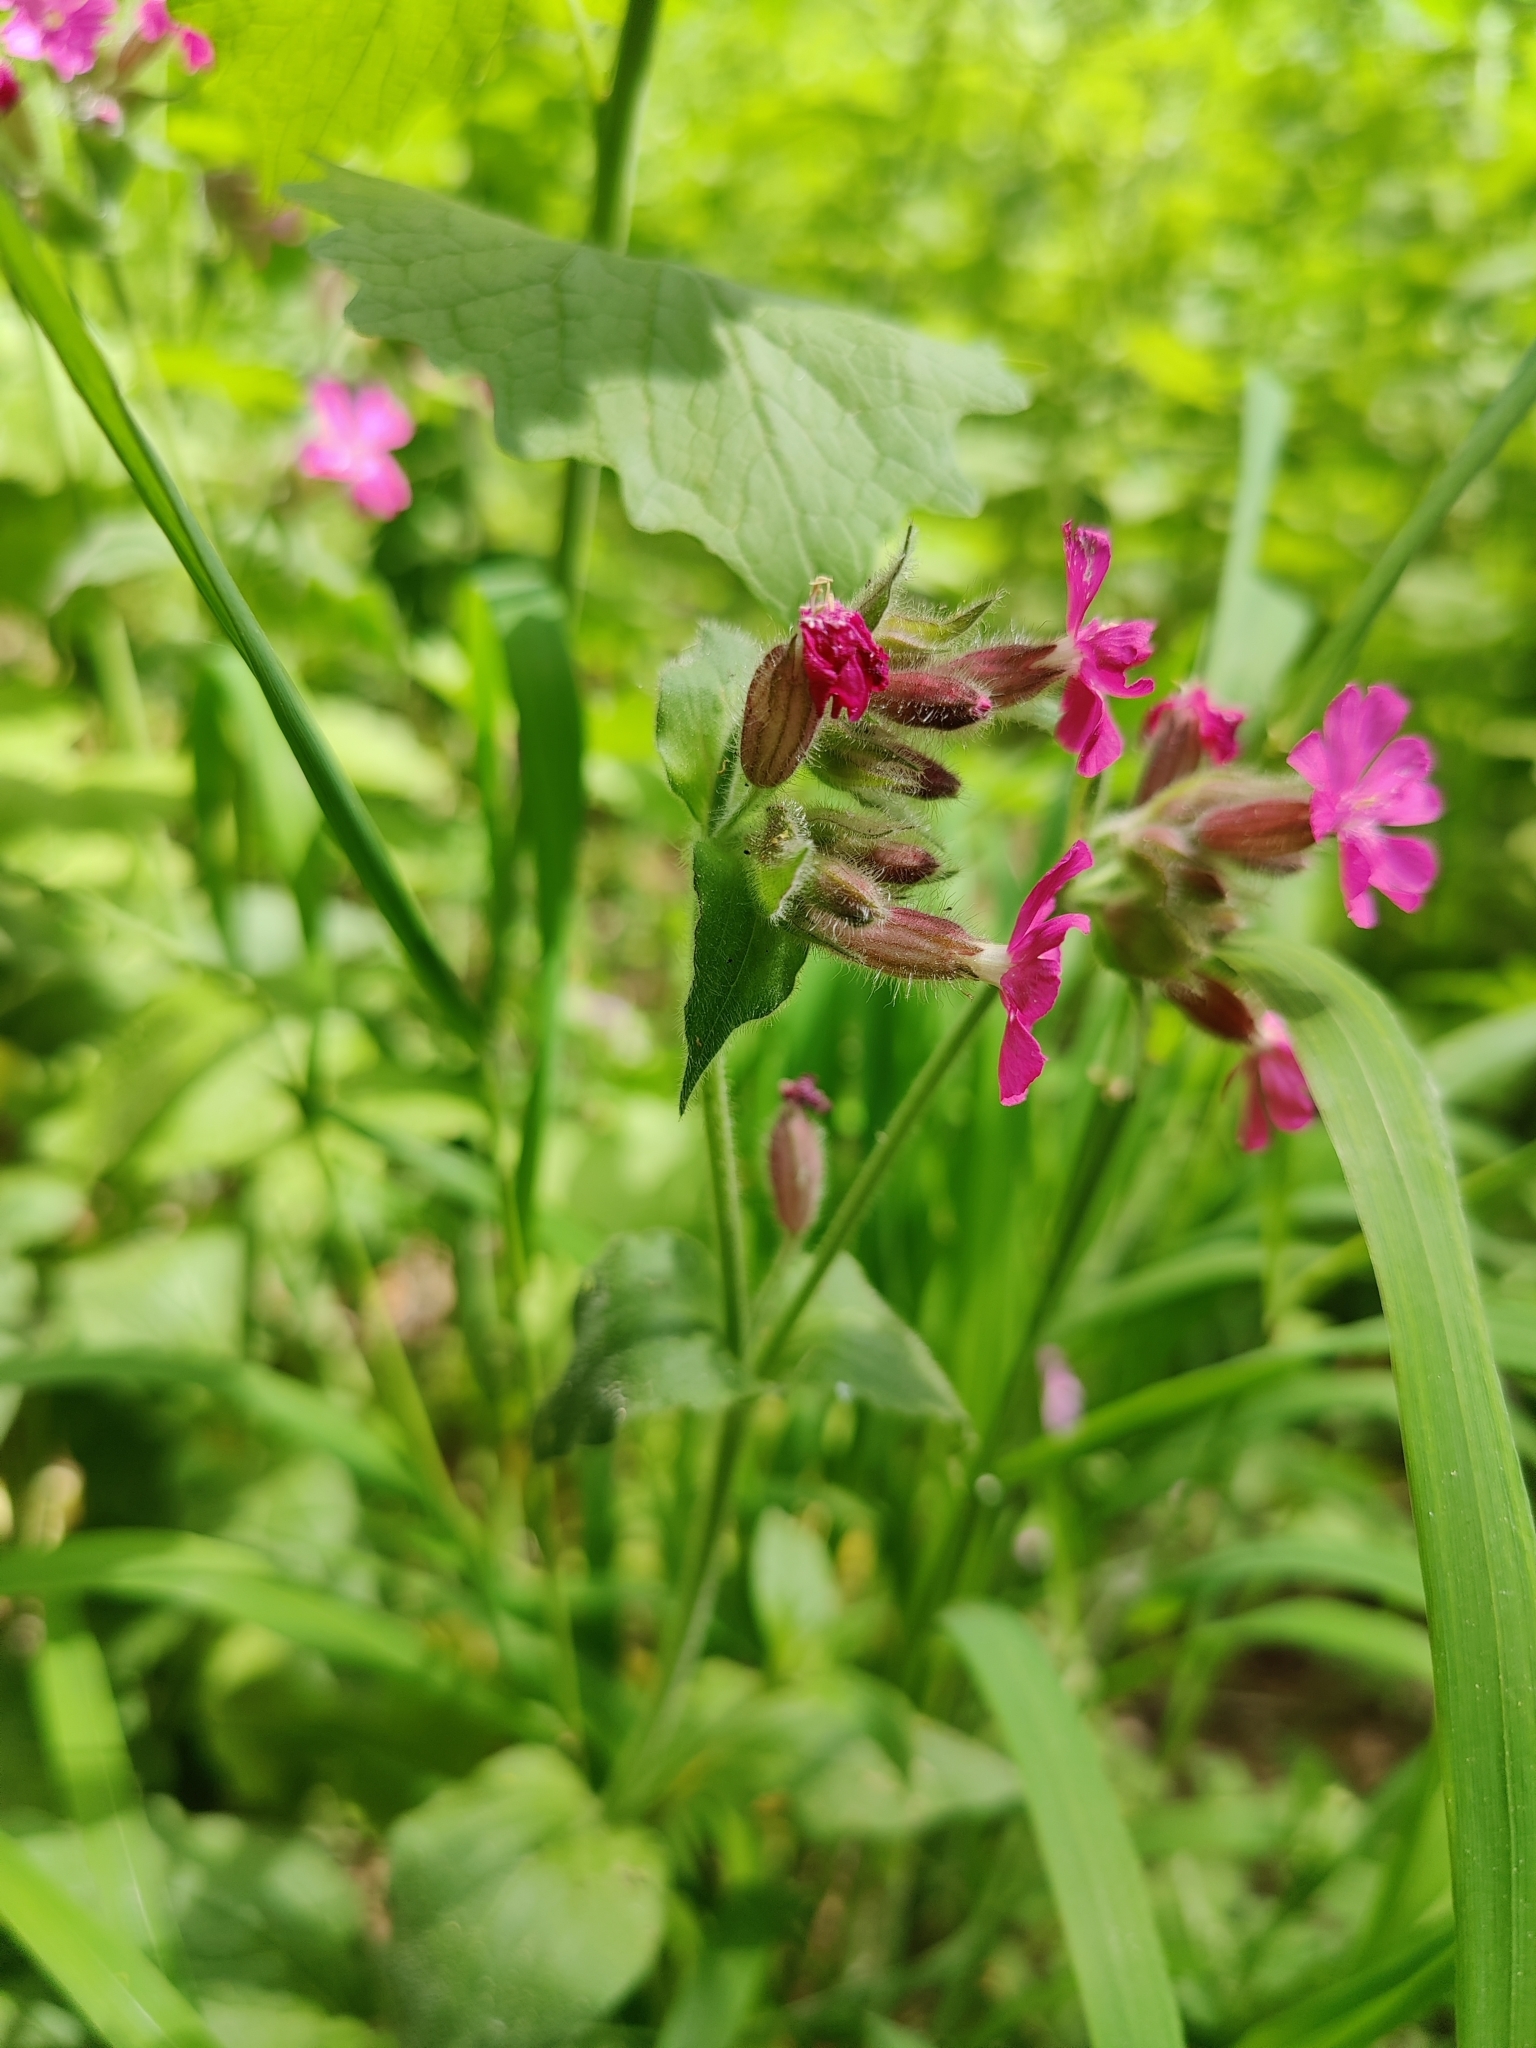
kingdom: Plantae
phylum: Tracheophyta
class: Magnoliopsida
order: Caryophyllales
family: Caryophyllaceae
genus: Silene
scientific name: Silene dioica
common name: Red campion
